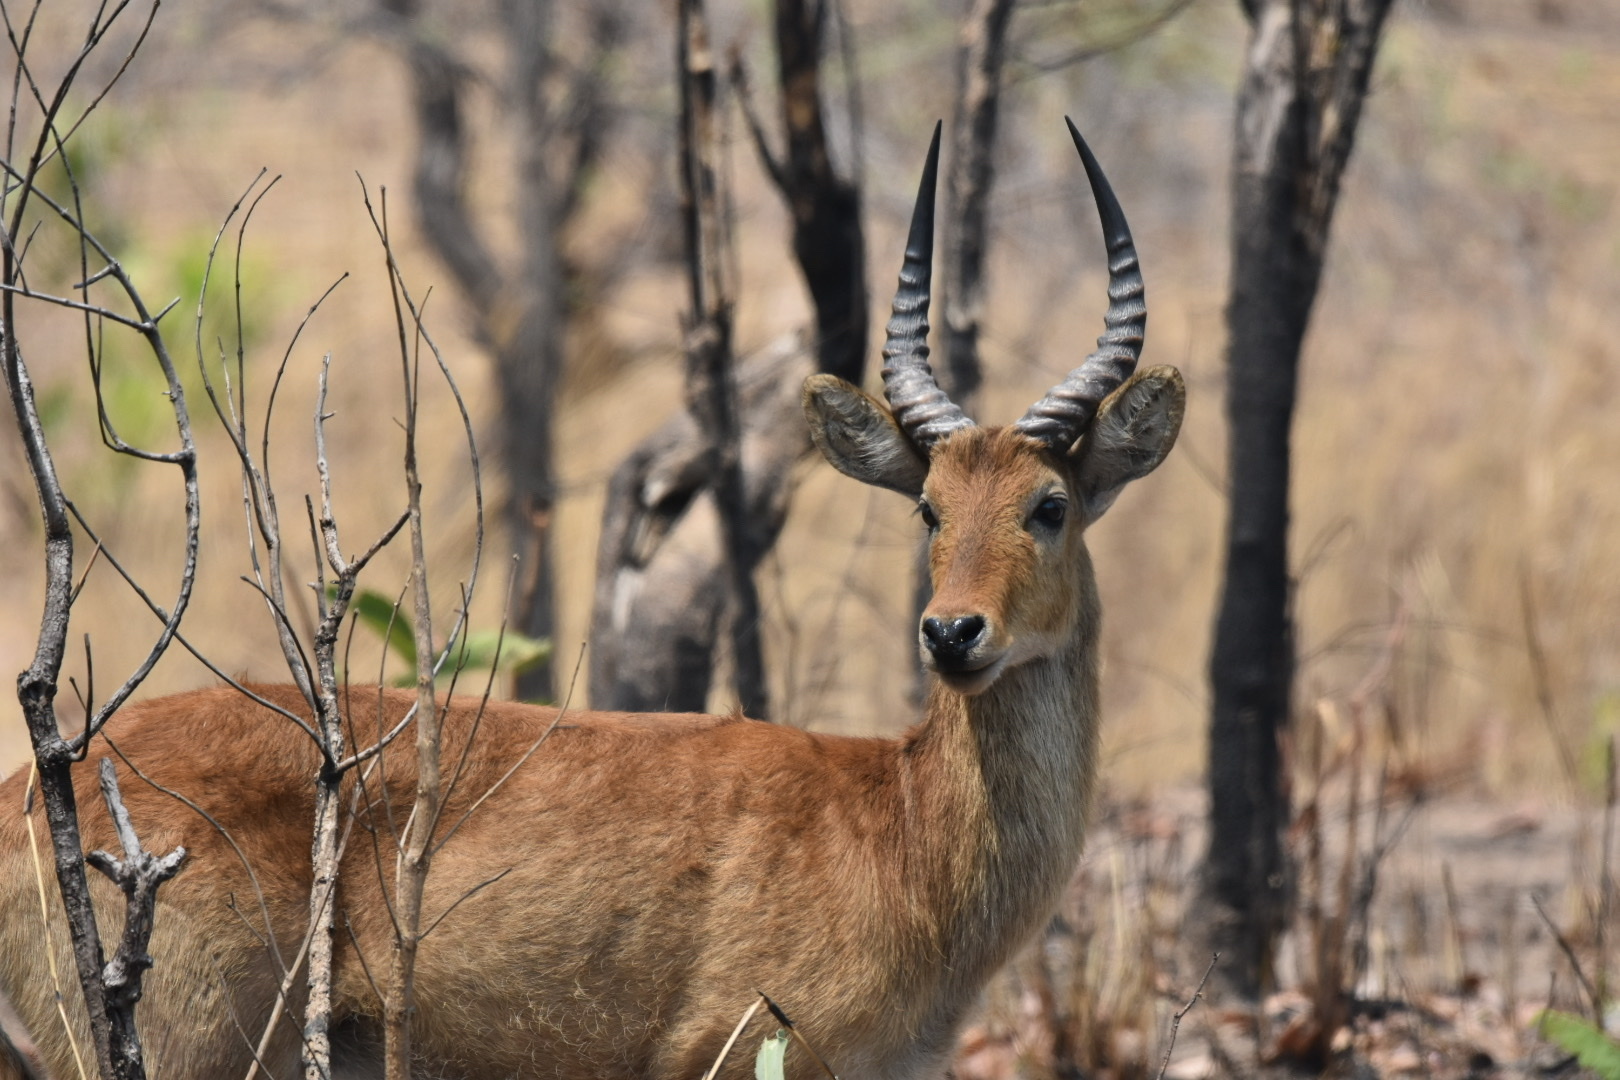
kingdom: Animalia
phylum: Chordata
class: Mammalia
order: Artiodactyla
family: Bovidae
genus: Kobus
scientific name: Kobus vardonii
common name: Puku
